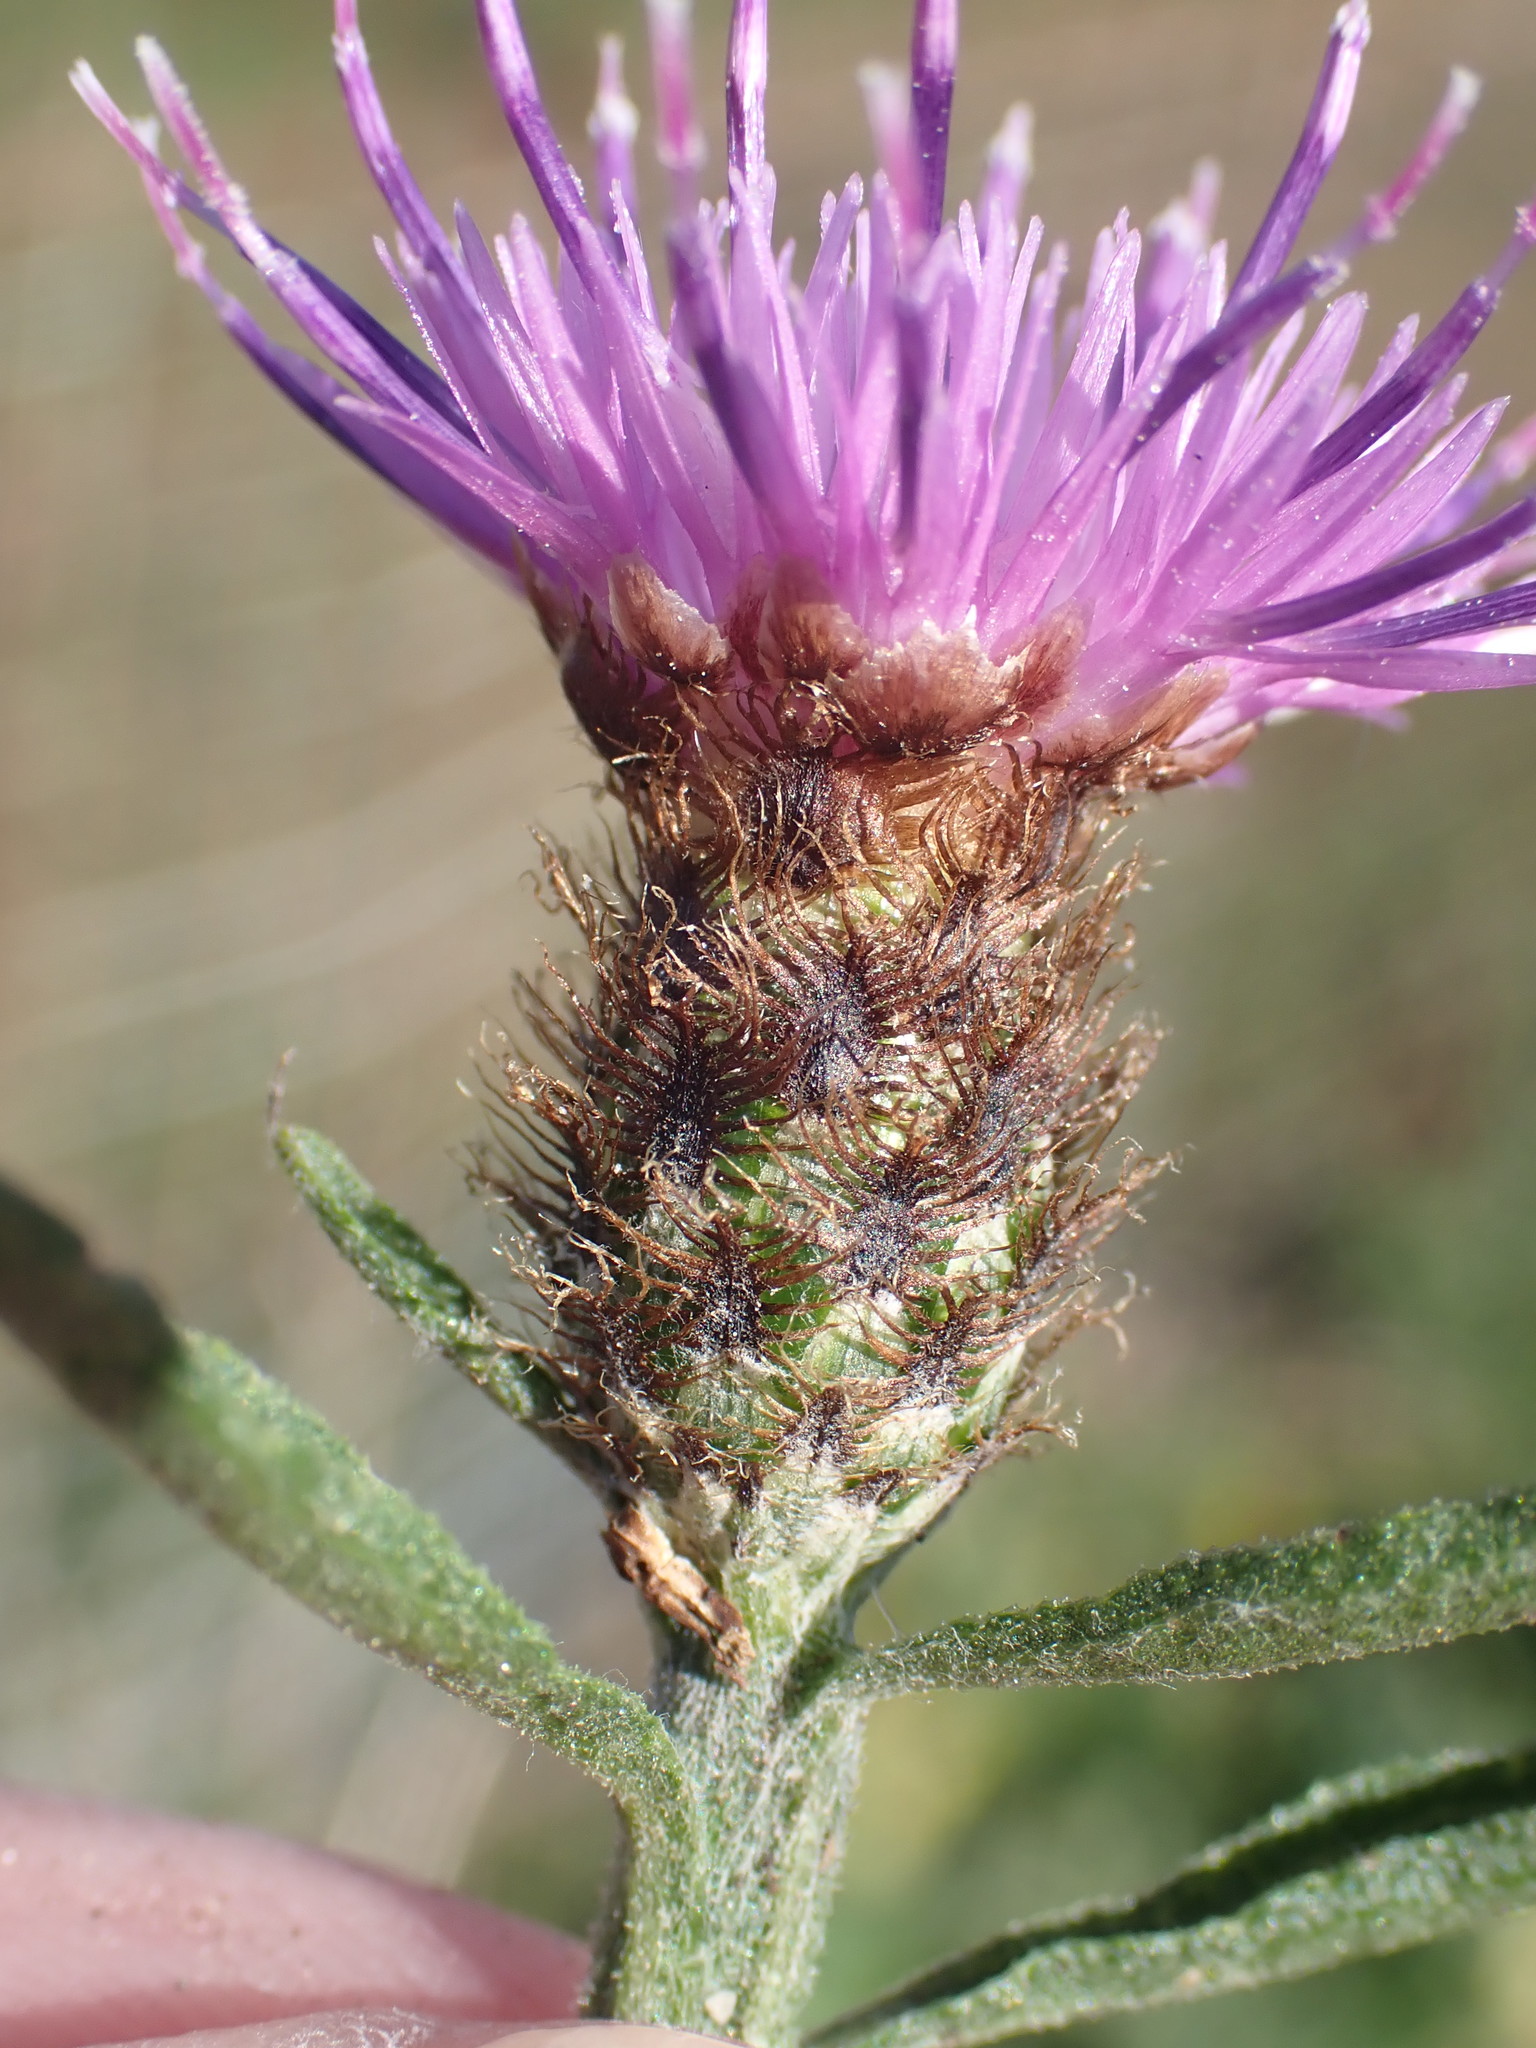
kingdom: Plantae
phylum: Tracheophyta
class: Magnoliopsida
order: Asterales
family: Asteraceae
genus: Centaurea
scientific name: Centaurea debeauxii
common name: Slender knapweed
